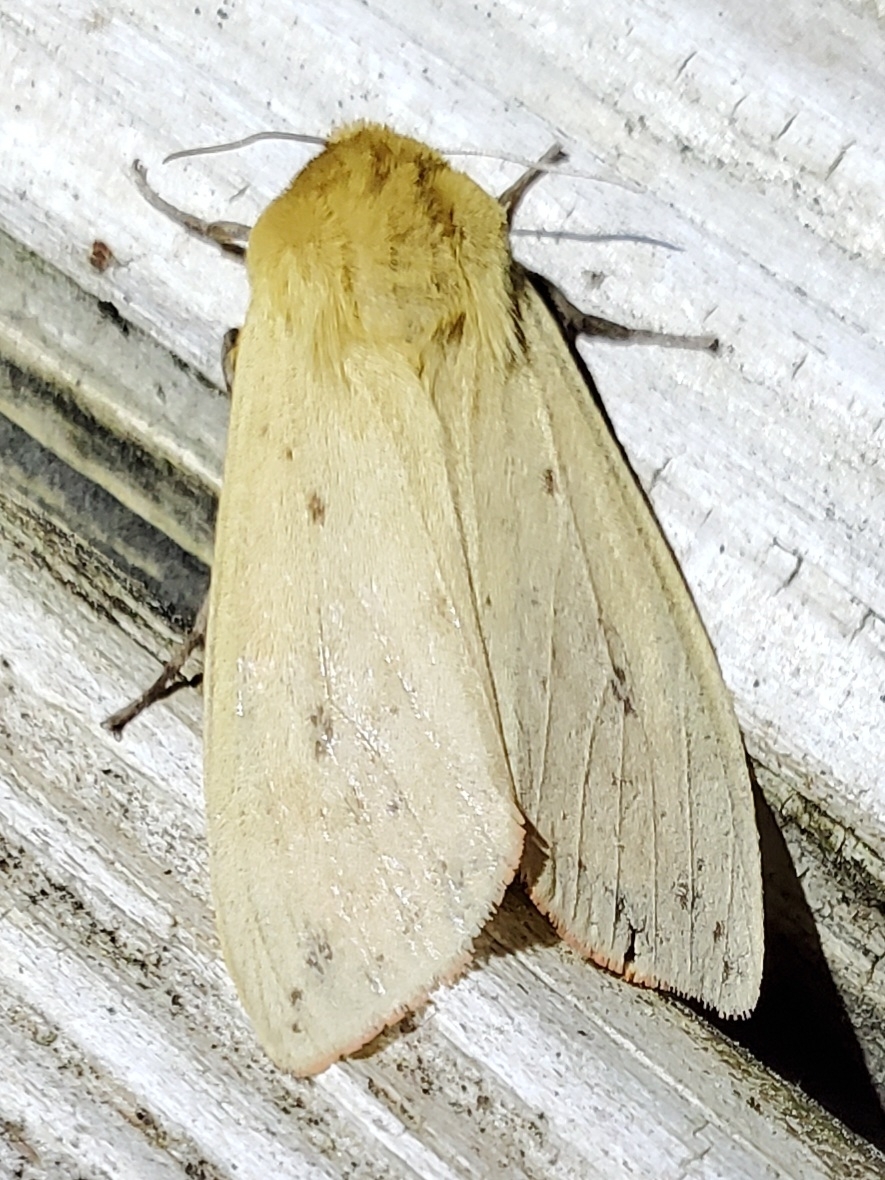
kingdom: Animalia
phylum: Arthropoda
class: Insecta
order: Lepidoptera
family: Erebidae
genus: Pyrrharctia
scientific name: Pyrrharctia isabella
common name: Isabella tiger moth
